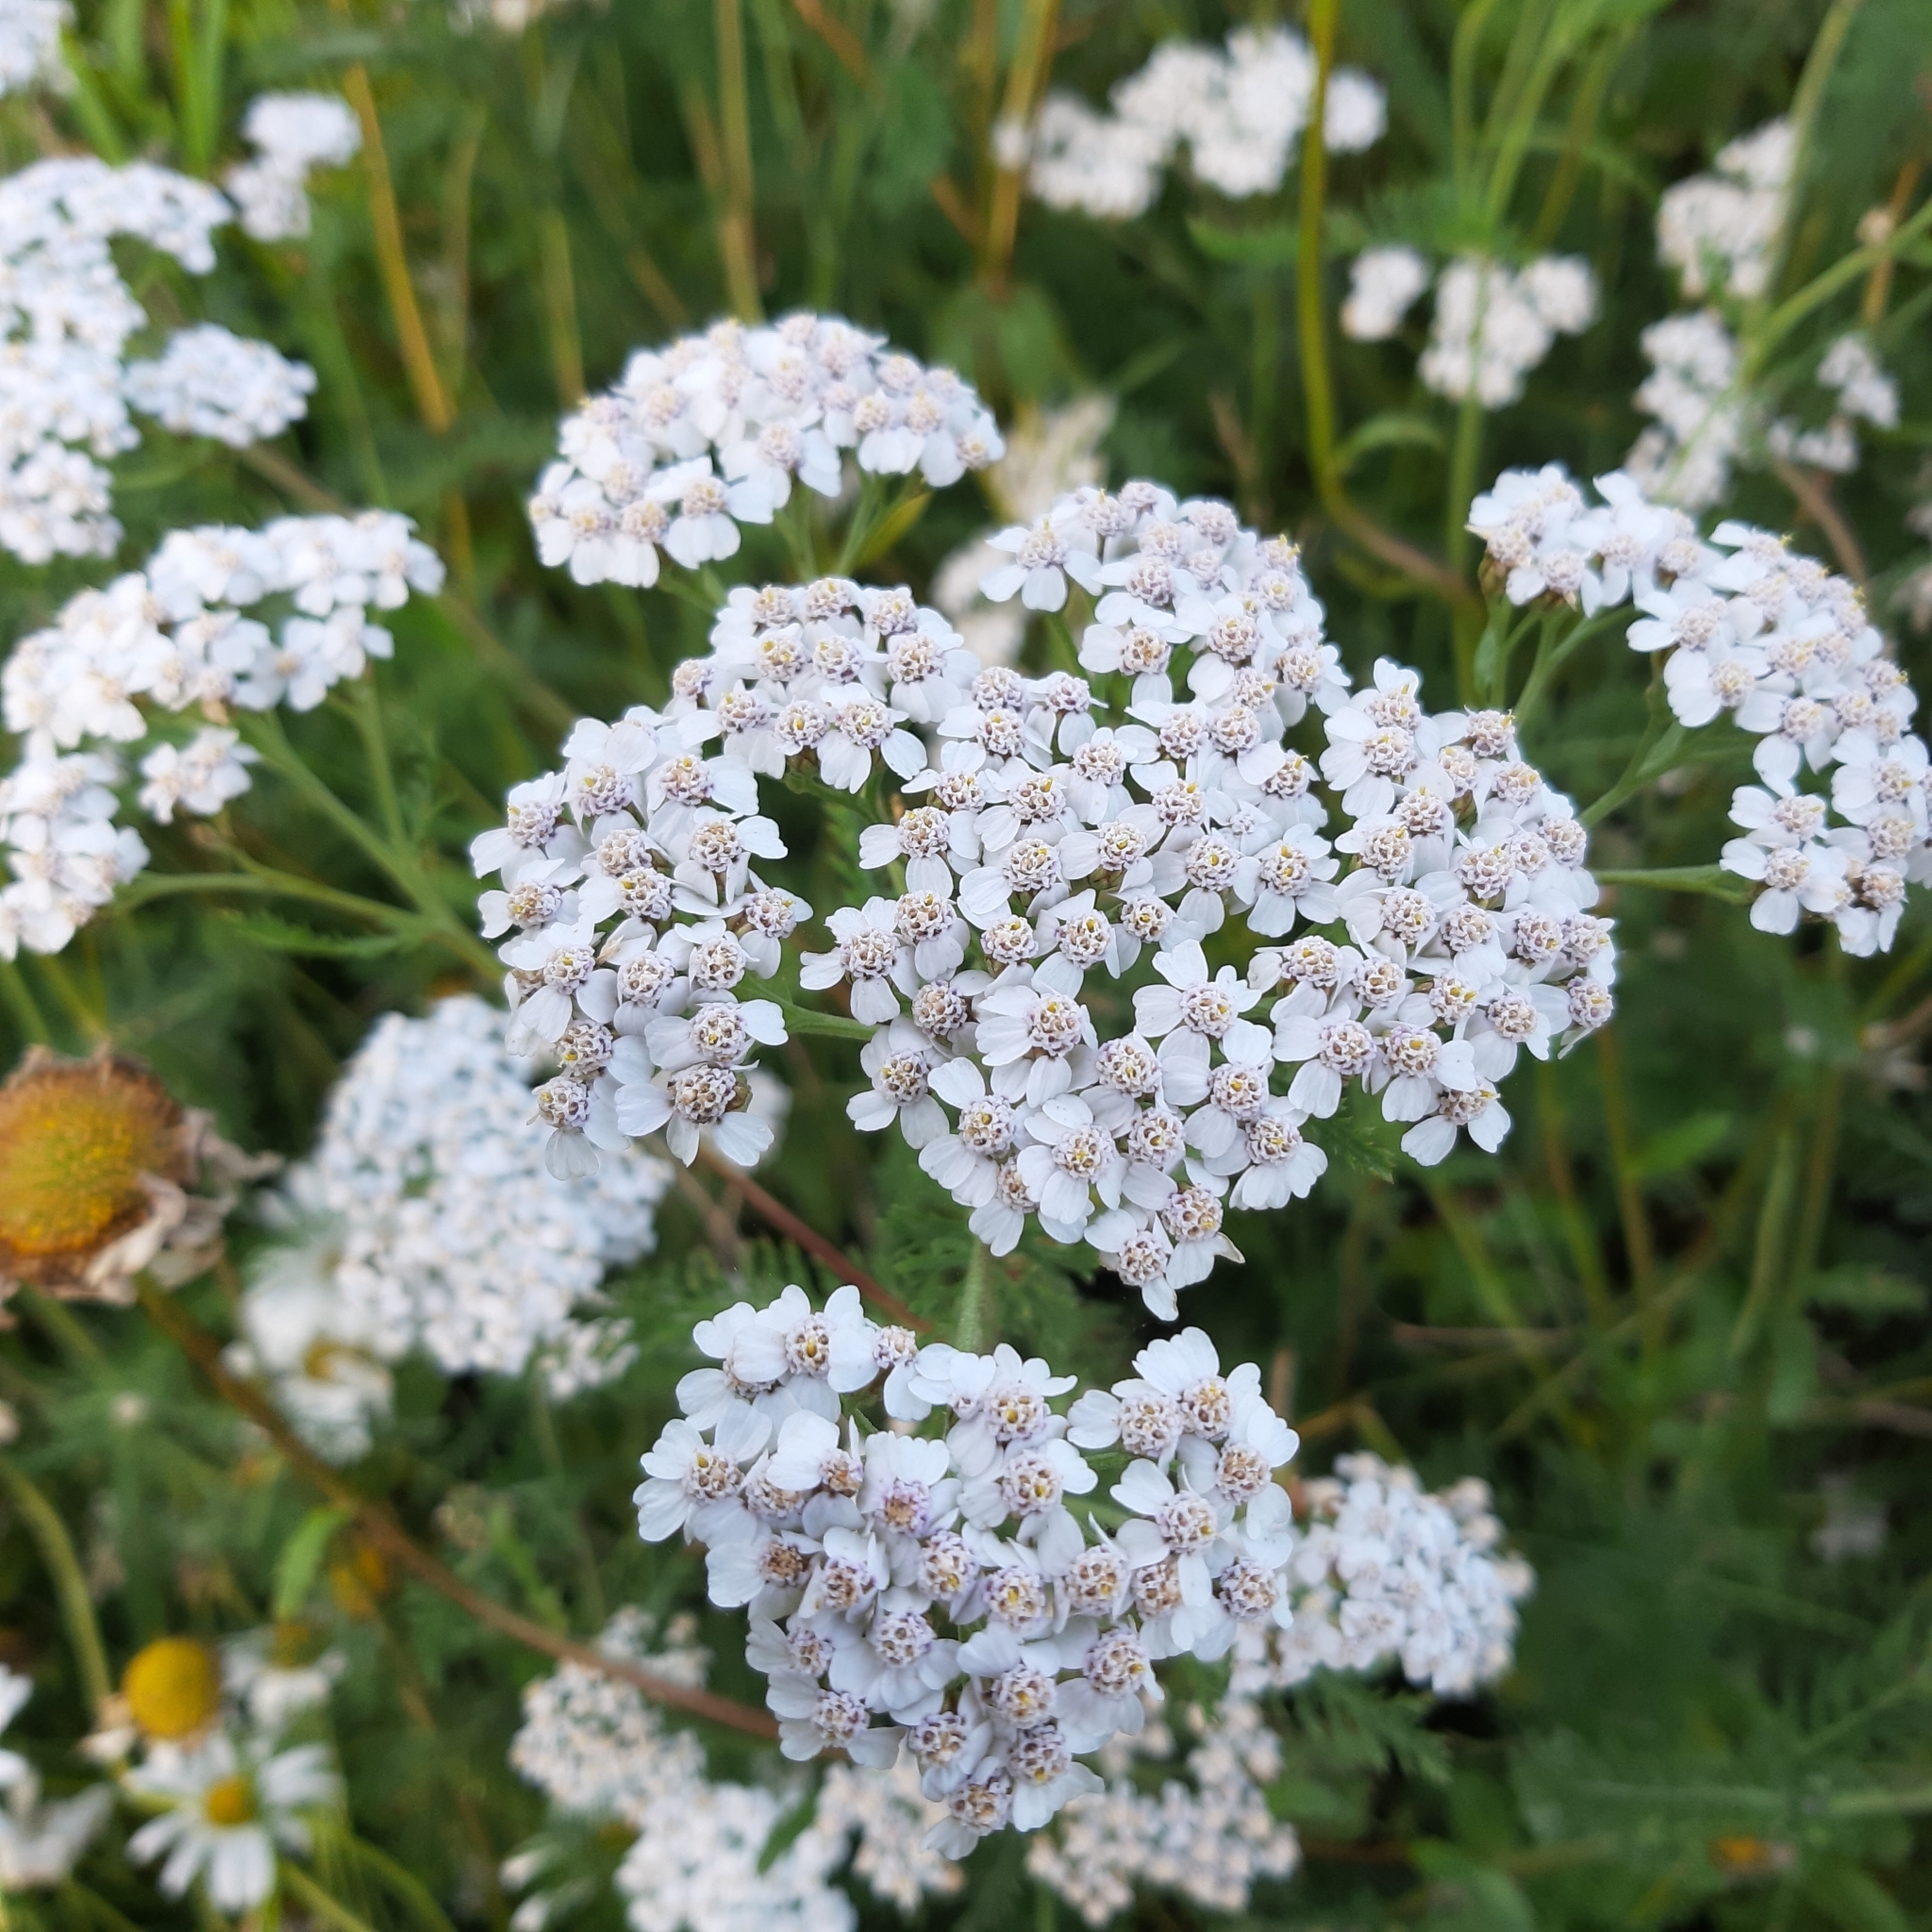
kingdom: Plantae
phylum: Tracheophyta
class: Magnoliopsida
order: Asterales
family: Asteraceae
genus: Achillea
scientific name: Achillea millefolium
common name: Yarrow
